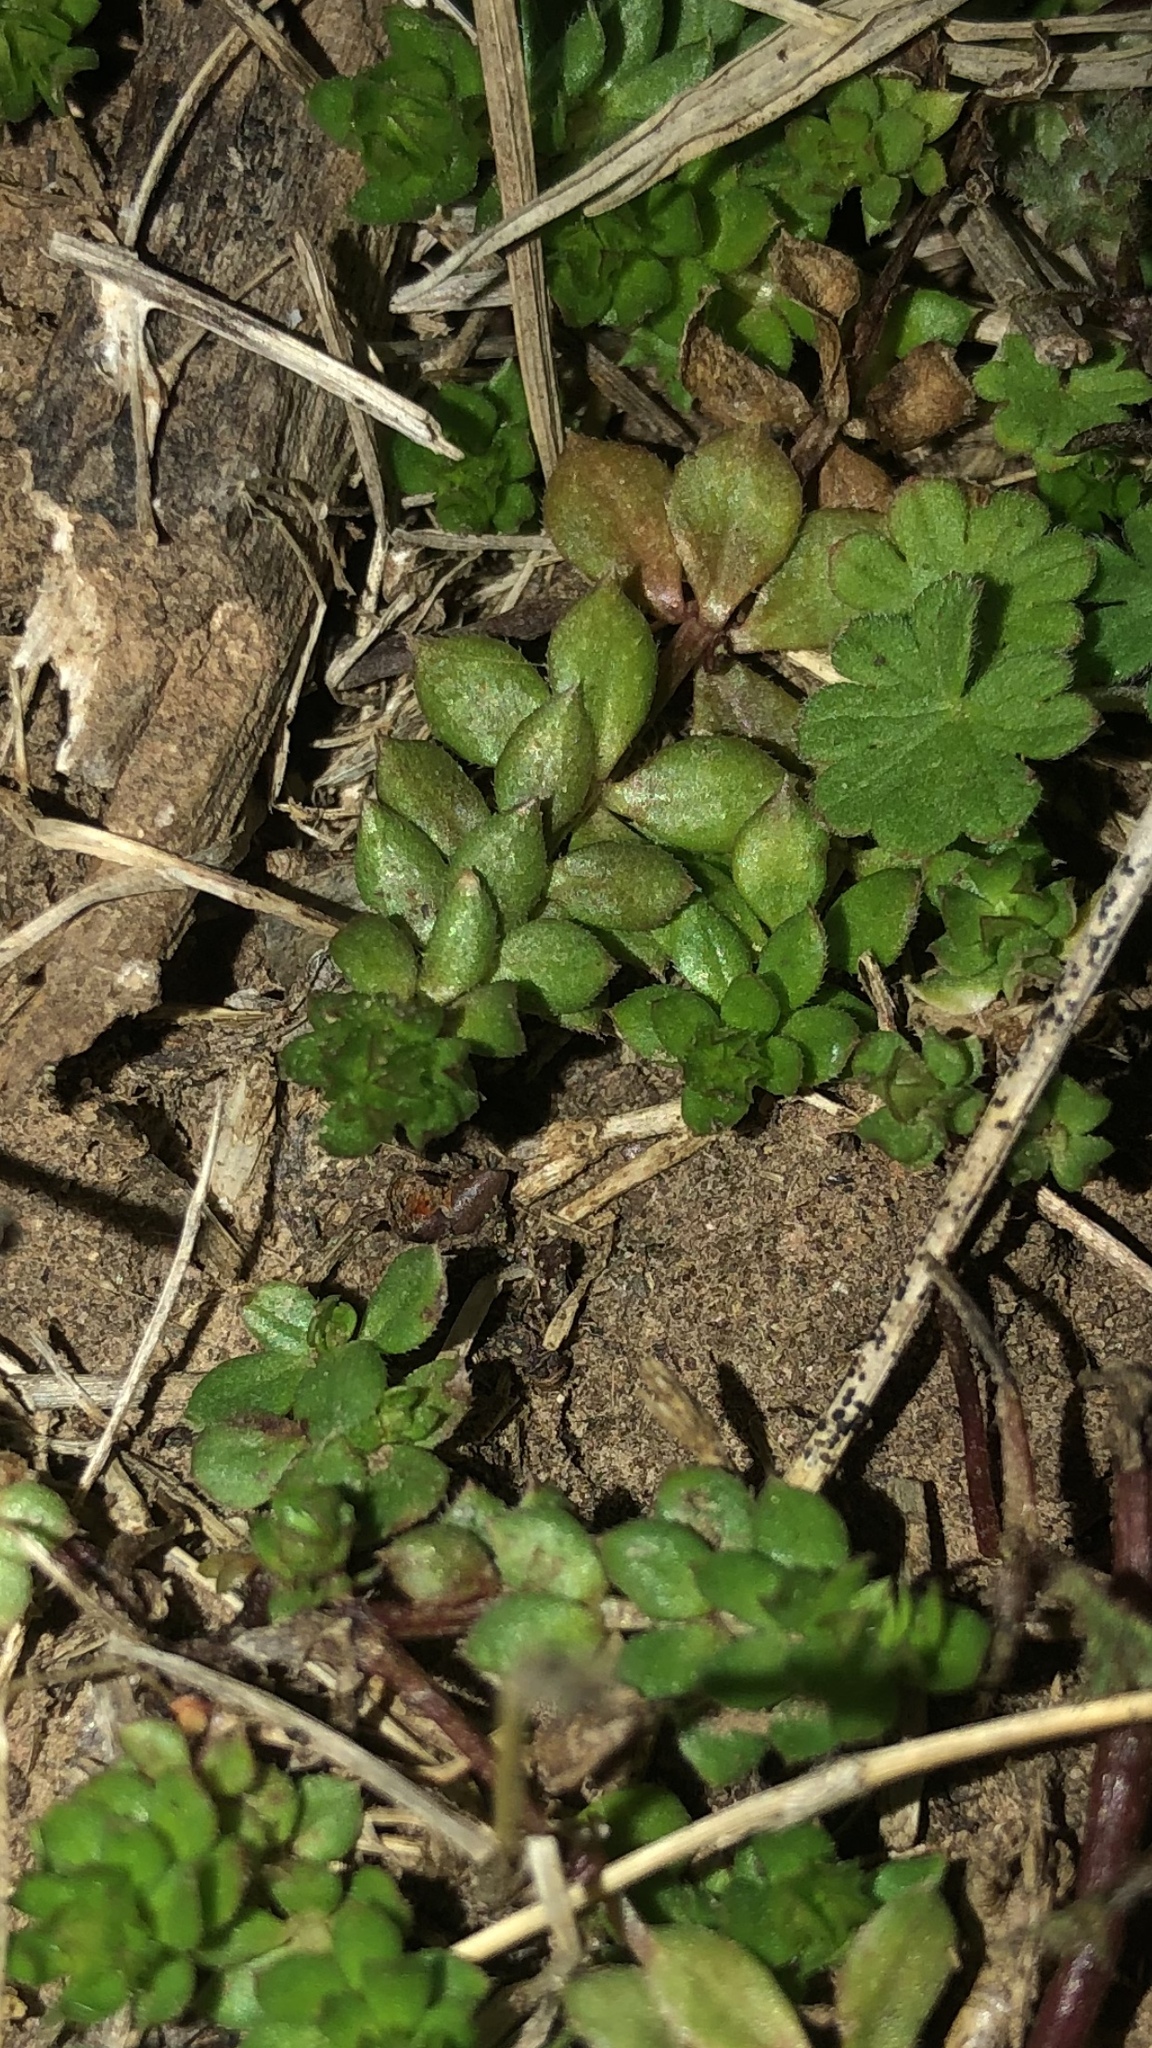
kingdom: Plantae
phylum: Tracheophyta
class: Magnoliopsida
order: Gentianales
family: Rubiaceae
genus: Sherardia
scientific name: Sherardia arvensis
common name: Field madder
